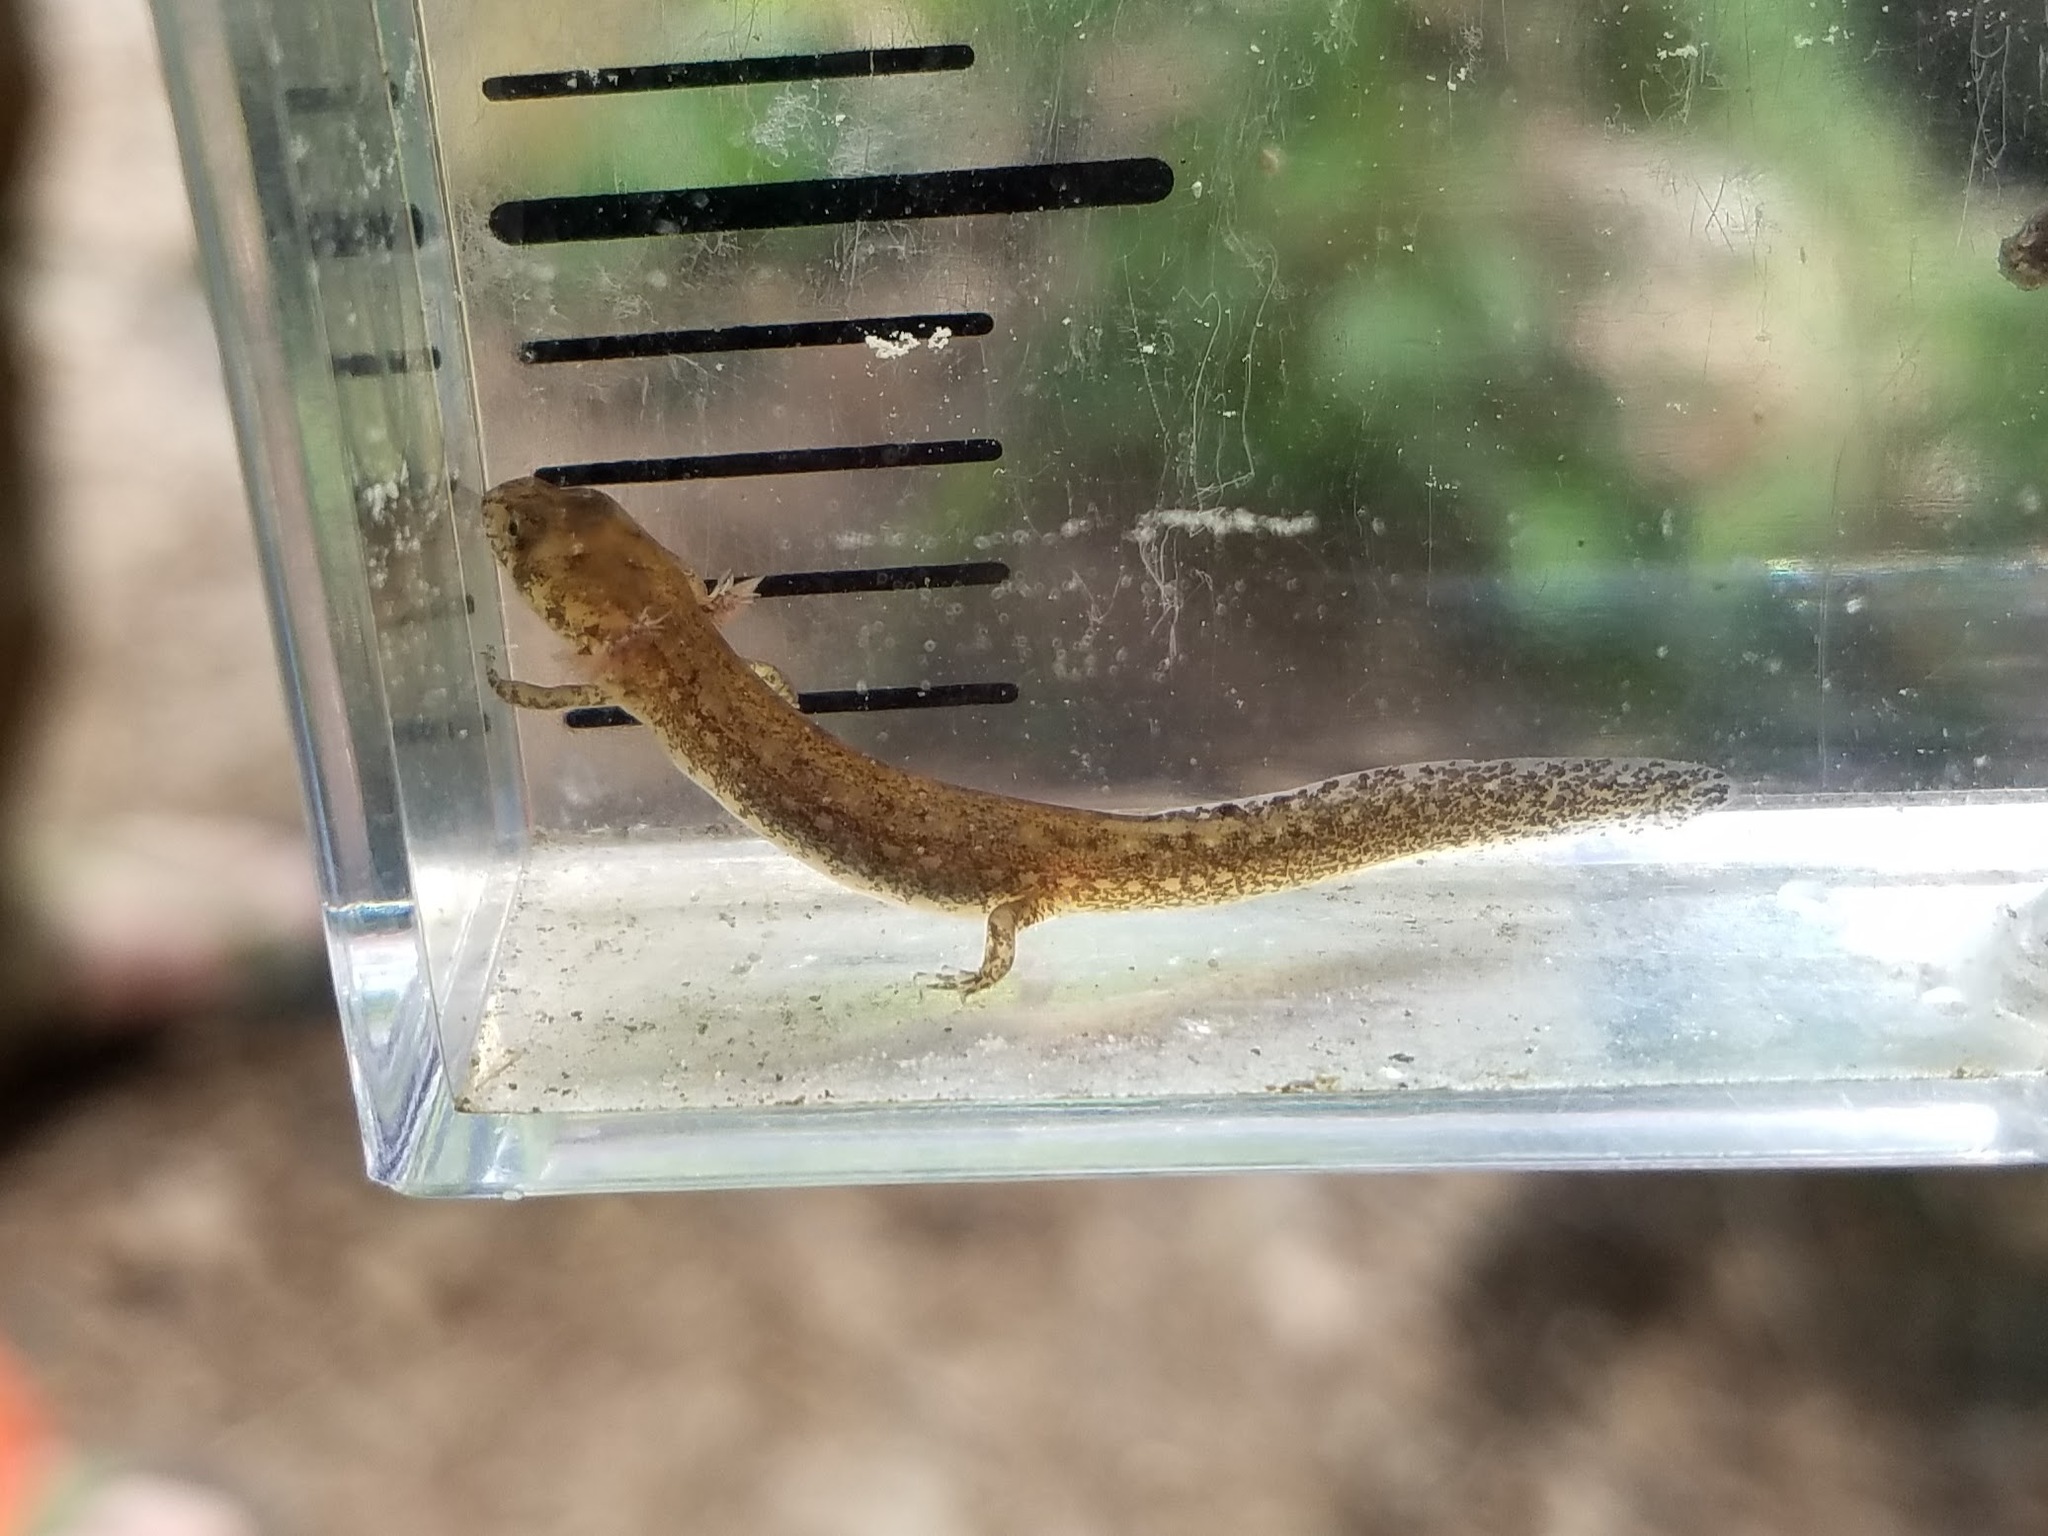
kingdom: Animalia
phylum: Chordata
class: Amphibia
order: Caudata
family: Plethodontidae
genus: Eurycea
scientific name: Eurycea
